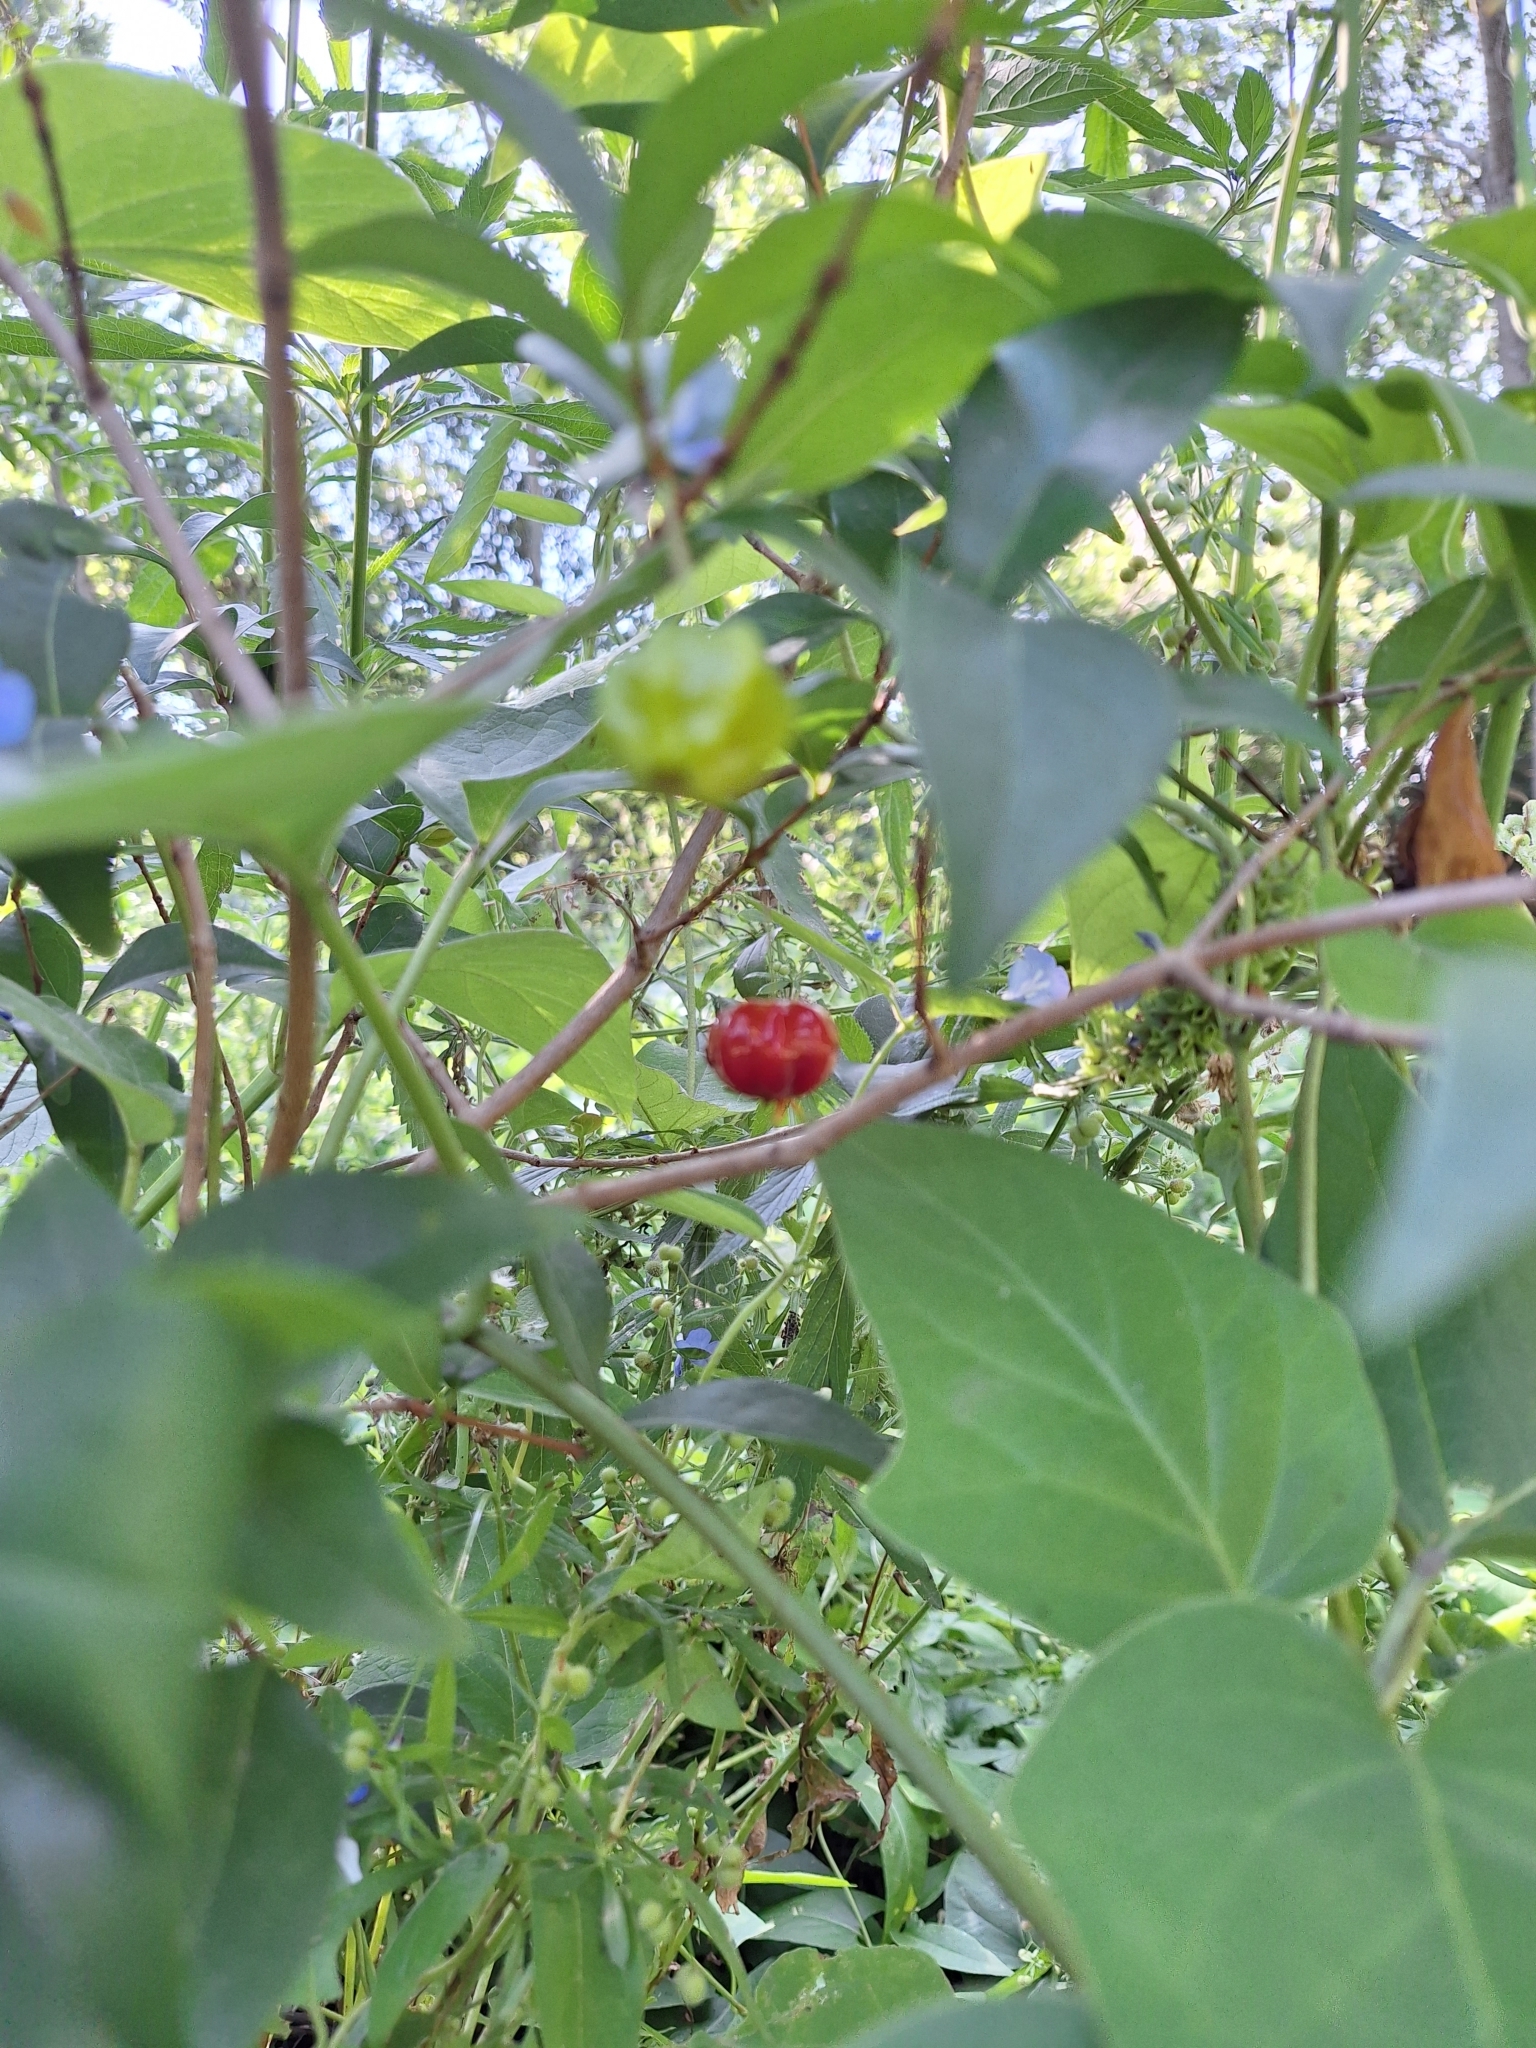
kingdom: Plantae
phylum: Tracheophyta
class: Magnoliopsida
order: Myrtales
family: Myrtaceae
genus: Eugenia
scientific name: Eugenia uniflora
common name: Surinam cherry
